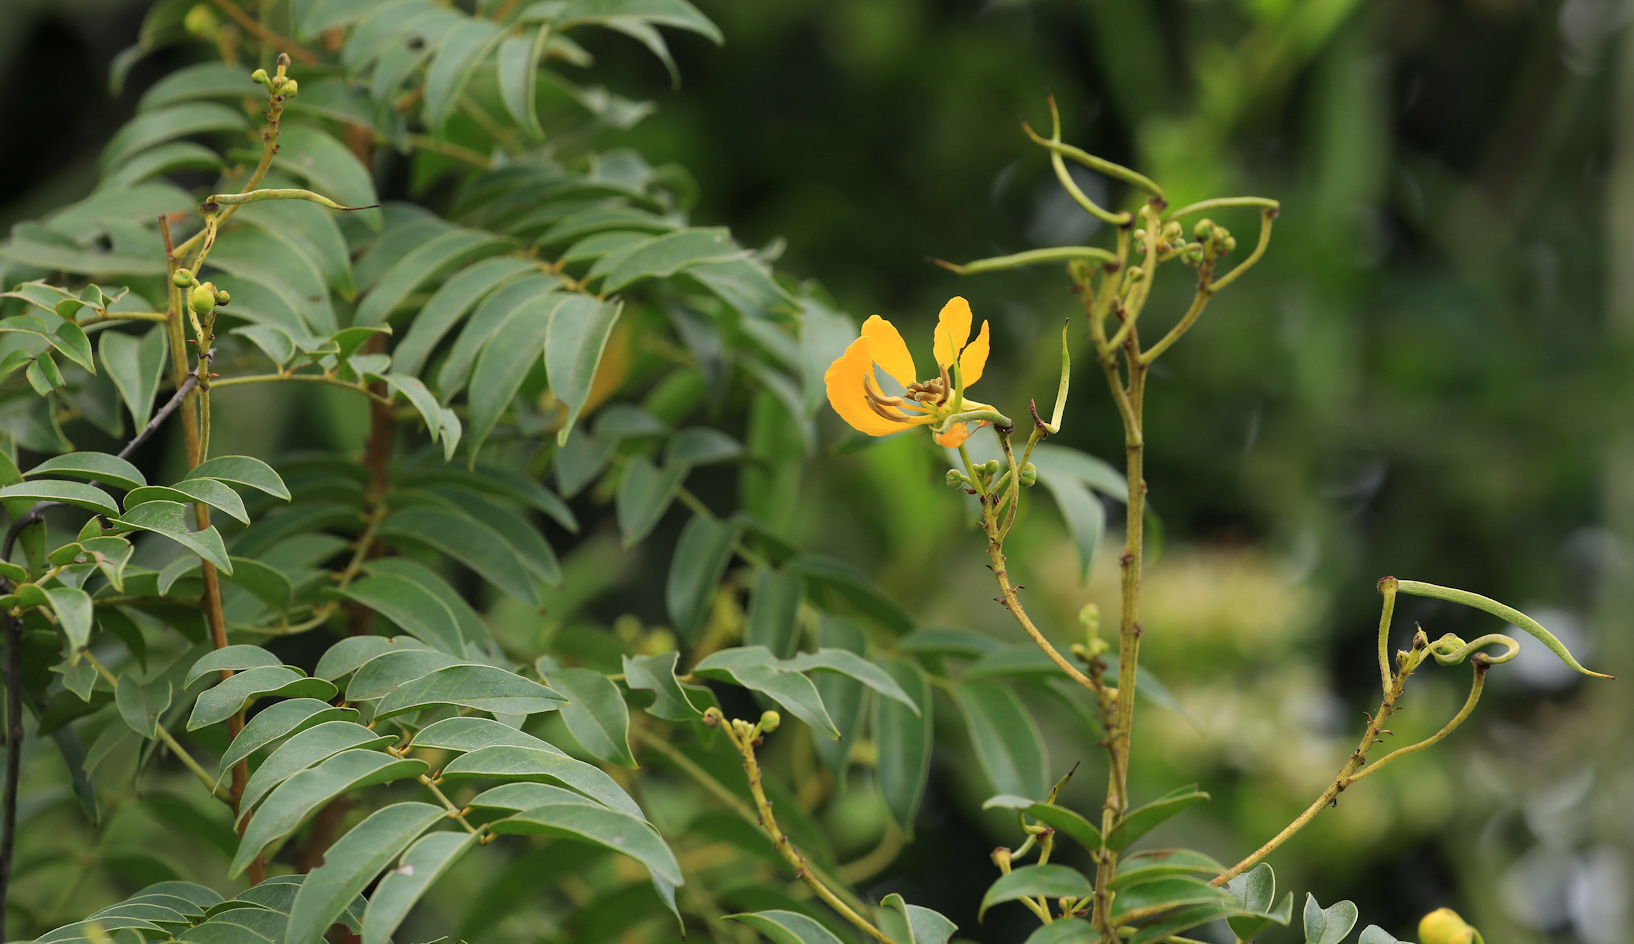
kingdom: Plantae
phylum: Tracheophyta
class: Magnoliopsida
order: Fabales
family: Fabaceae
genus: Senna
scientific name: Senna petersiana
